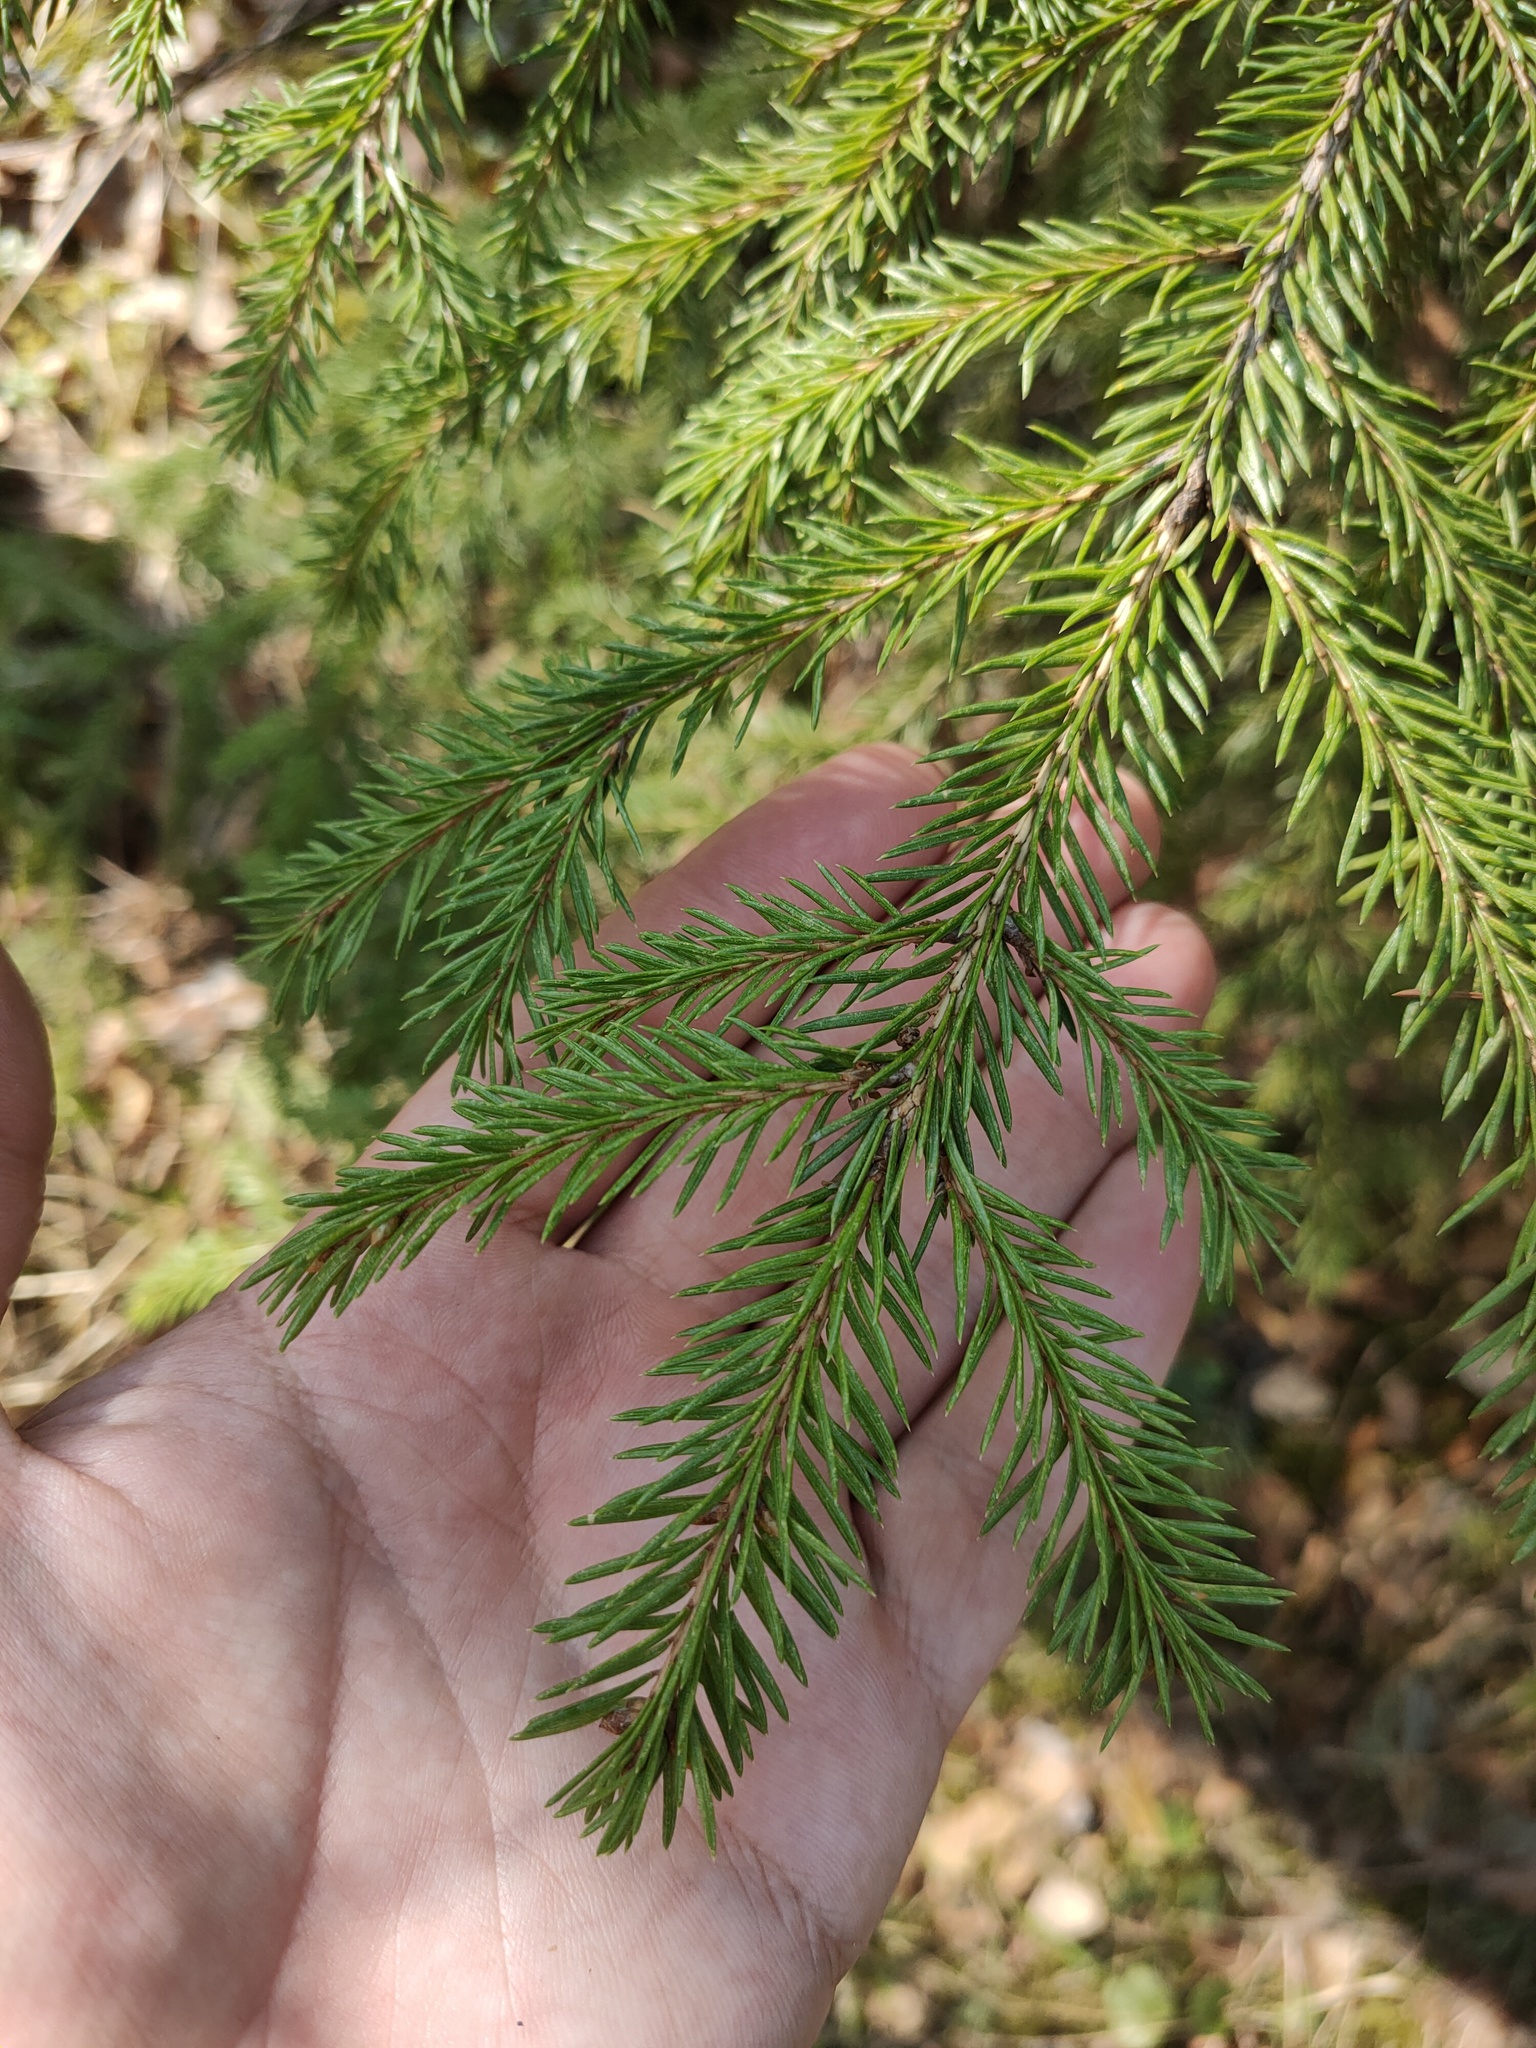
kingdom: Plantae
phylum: Tracheophyta
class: Pinopsida
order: Pinales
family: Pinaceae
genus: Picea
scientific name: Picea
